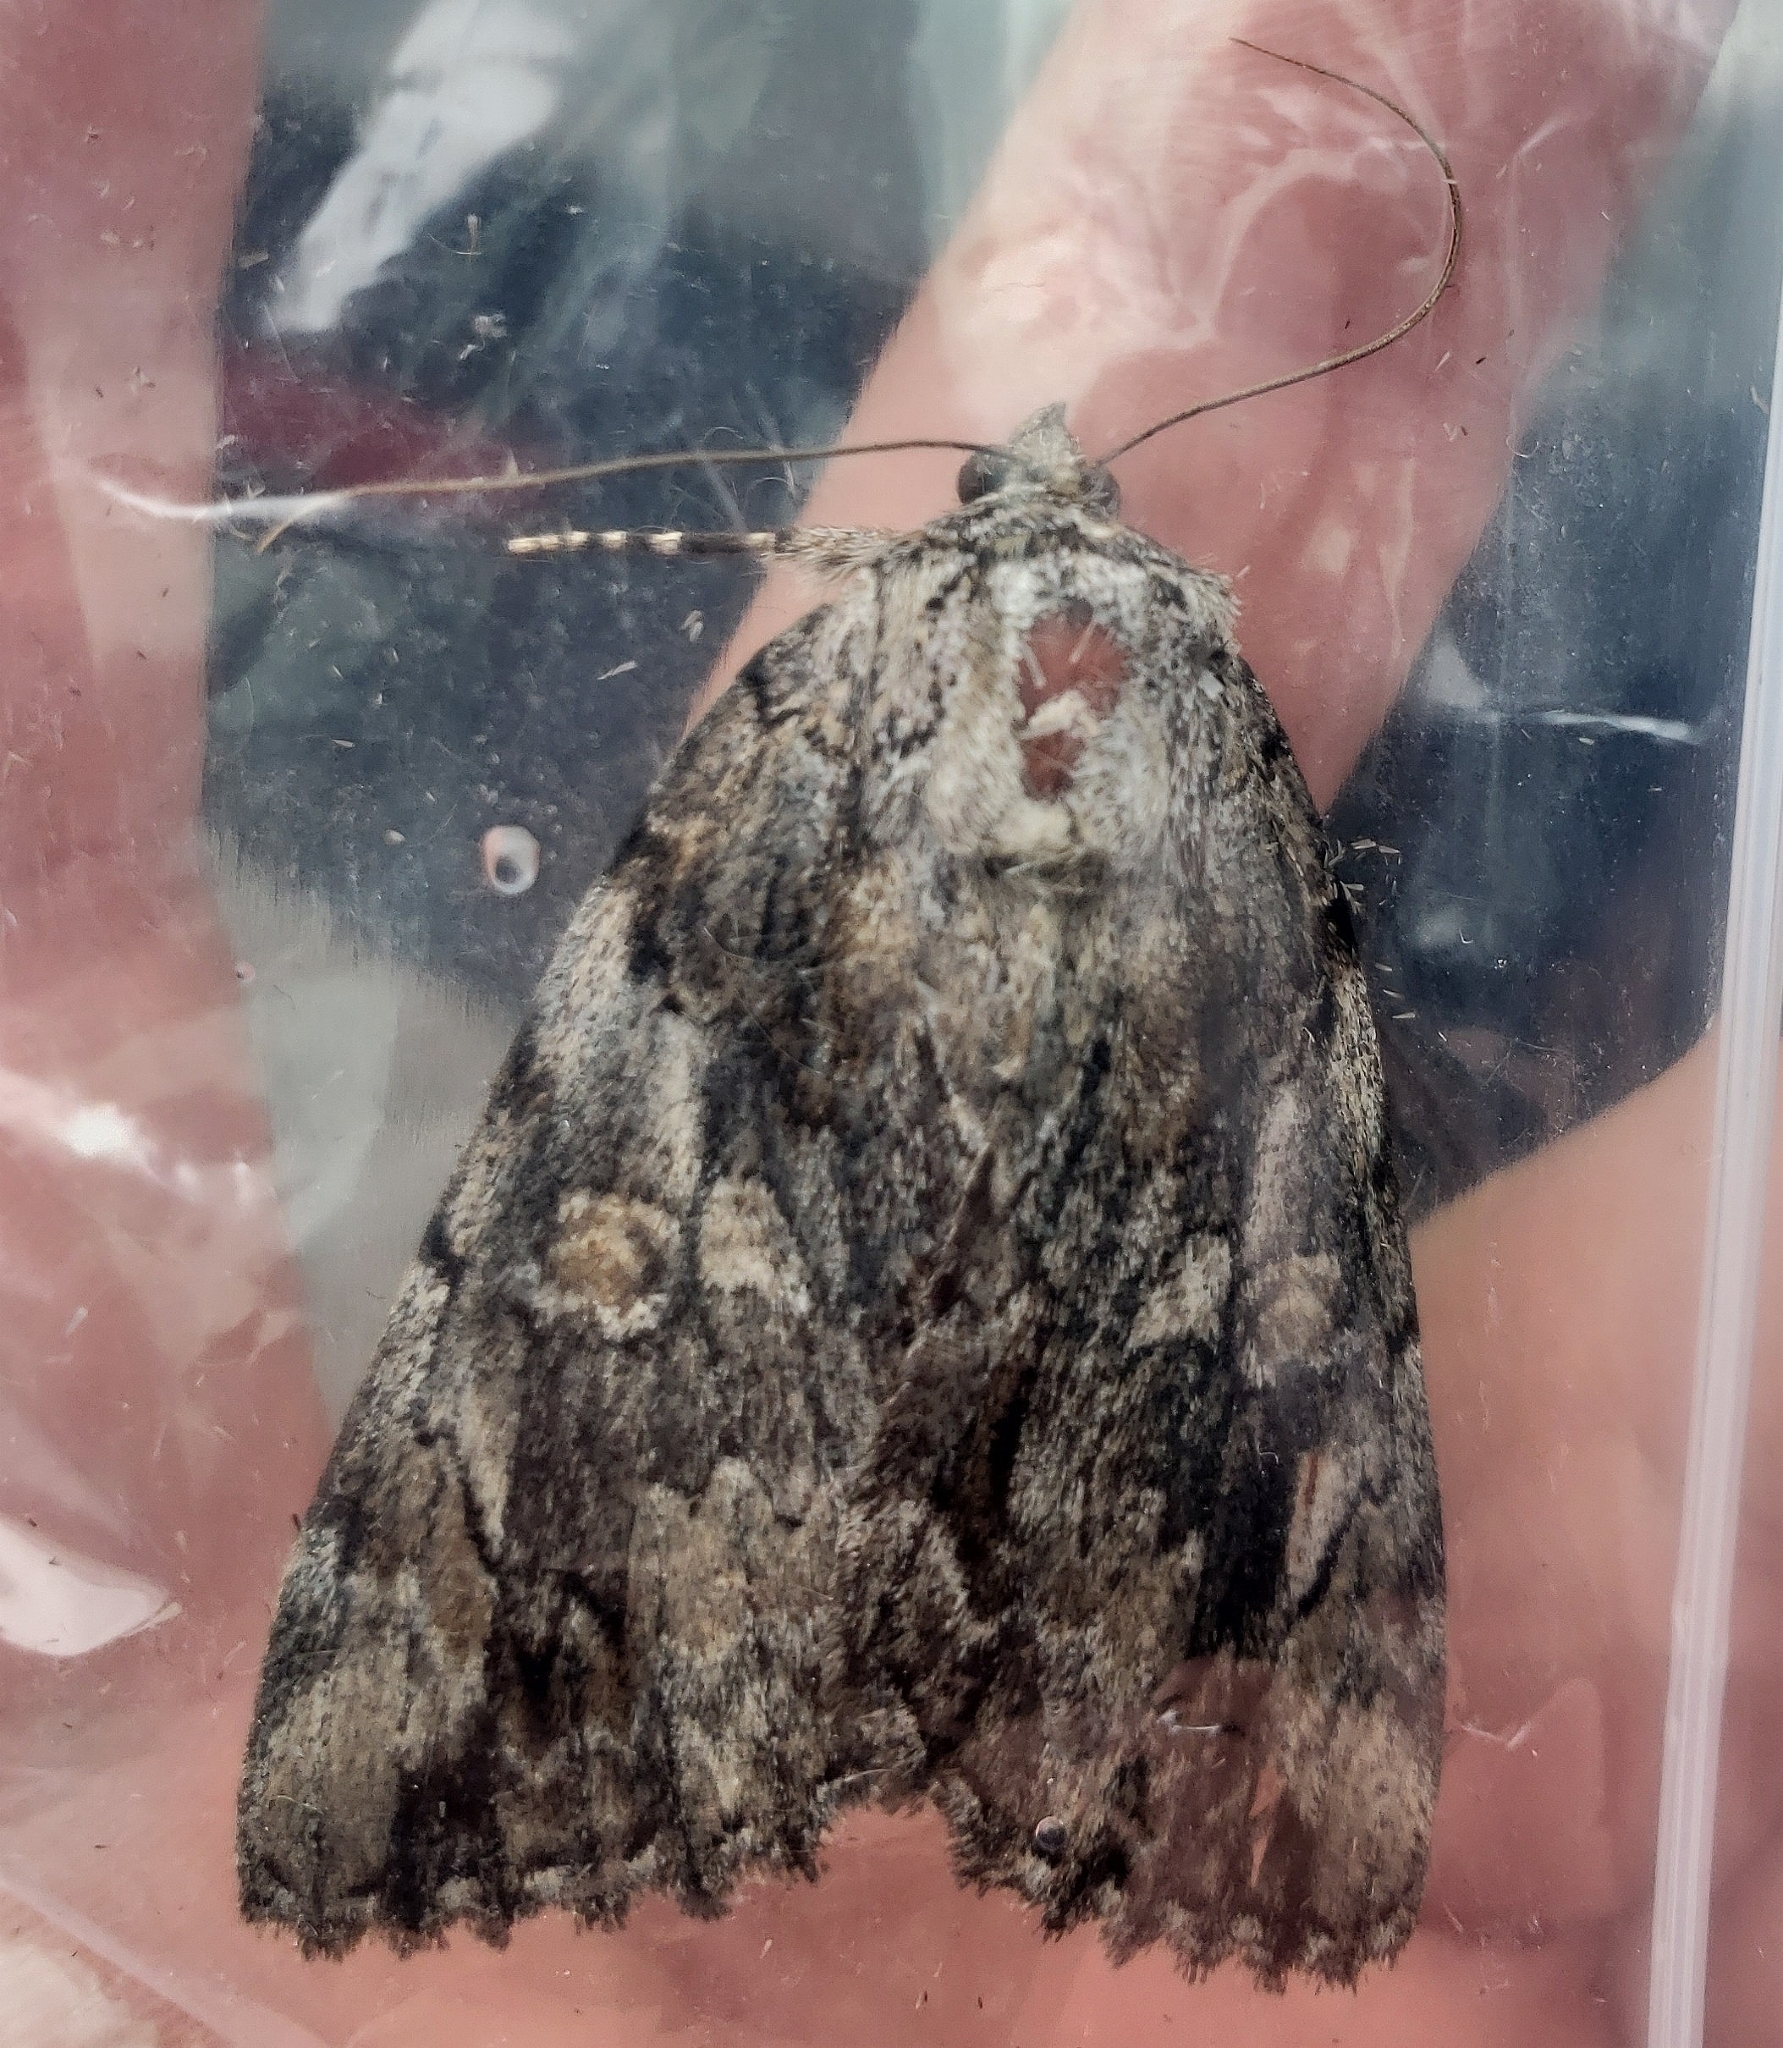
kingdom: Animalia
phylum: Arthropoda
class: Insecta
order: Lepidoptera
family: Erebidae
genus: Catocala
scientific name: Catocala neogama
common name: Bride underwing
